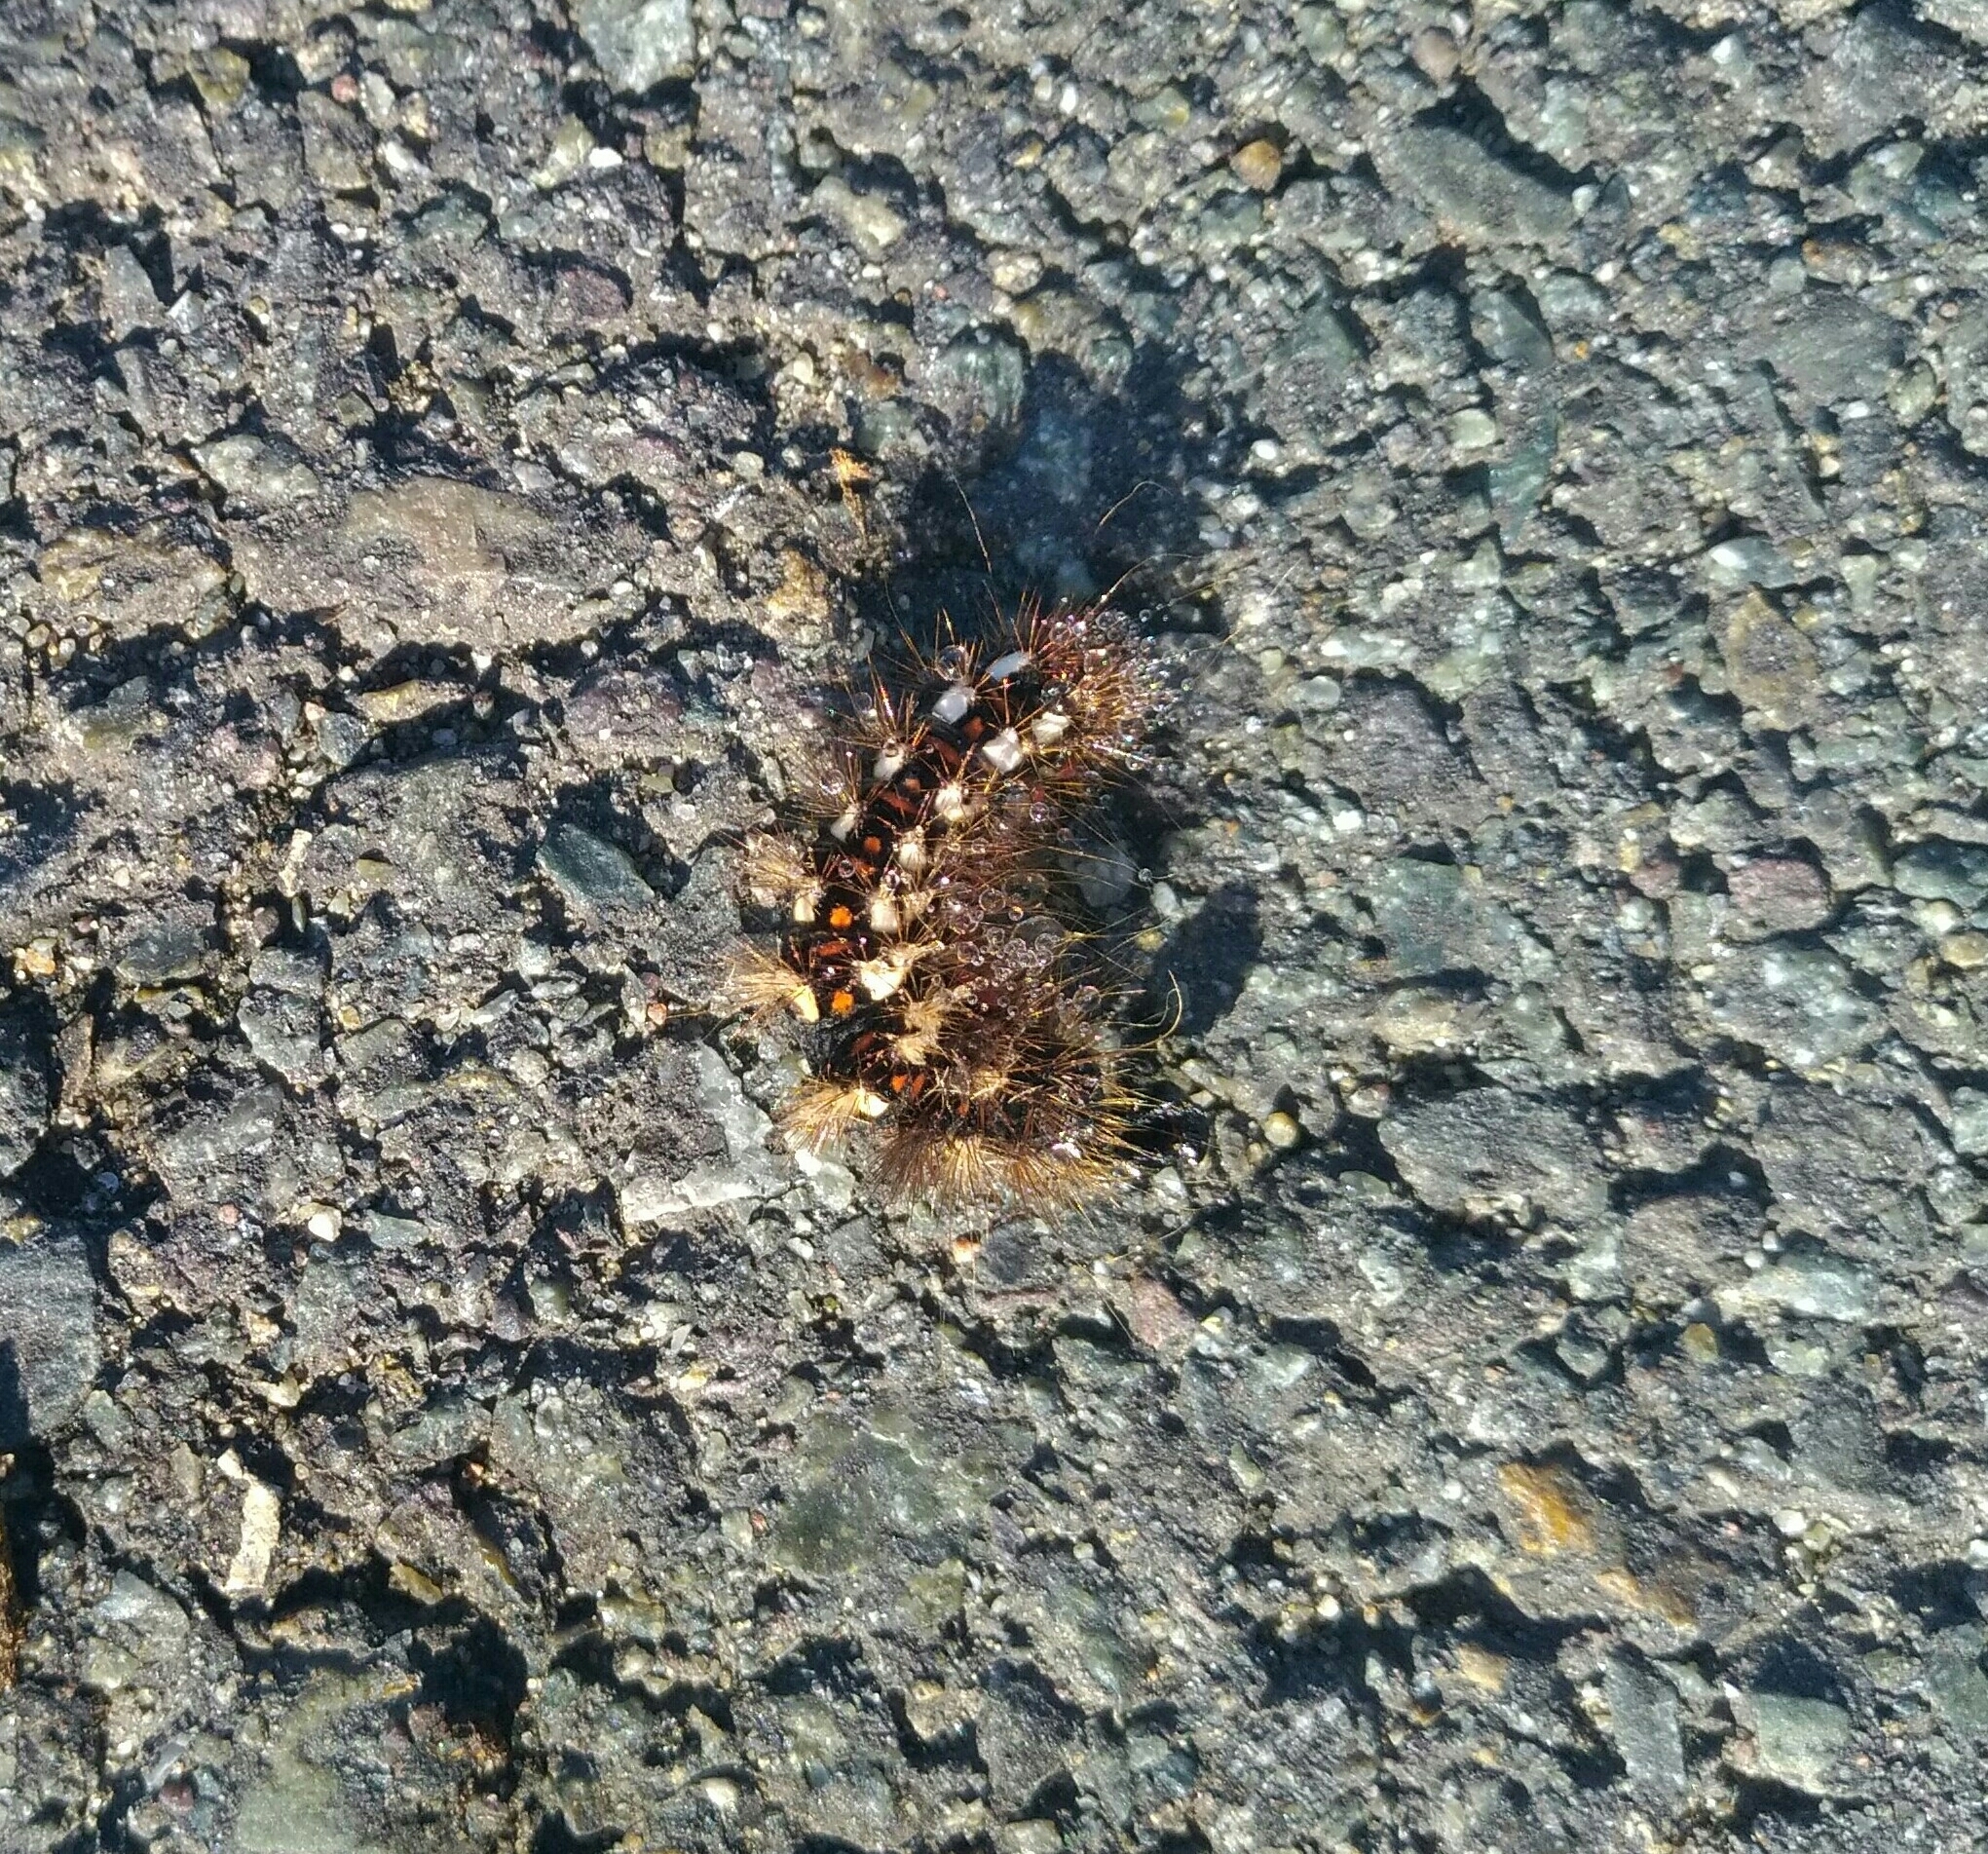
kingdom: Animalia
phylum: Arthropoda
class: Insecta
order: Lepidoptera
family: Noctuidae
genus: Acronicta
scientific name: Acronicta rumicis
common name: Knot grass
